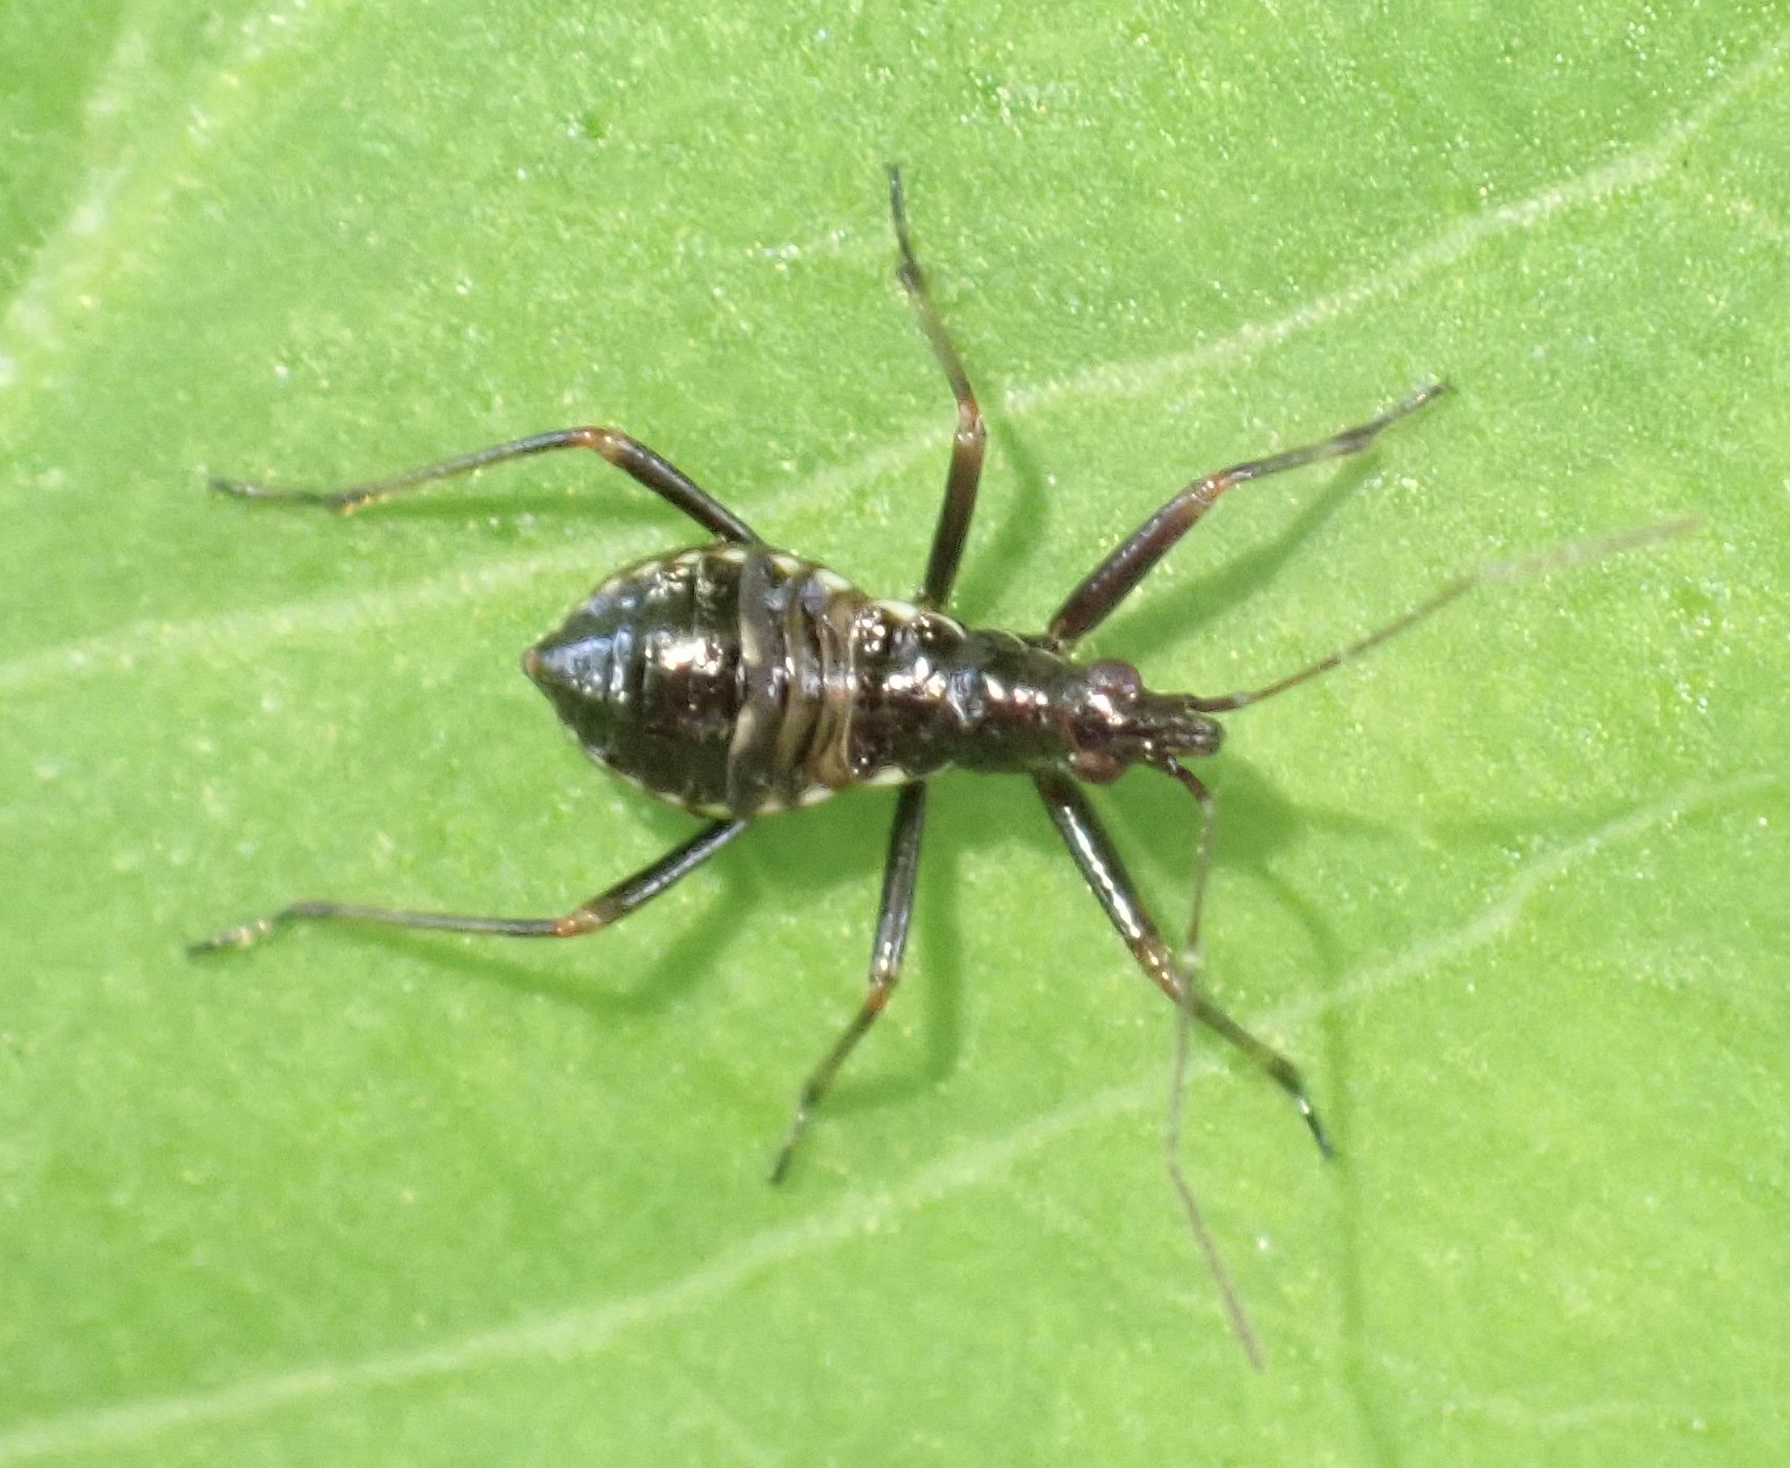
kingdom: Animalia
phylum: Arthropoda
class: Insecta
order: Hemiptera
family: Nabidae
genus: Himacerus
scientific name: Himacerus apterus
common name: Tree damsel bug
